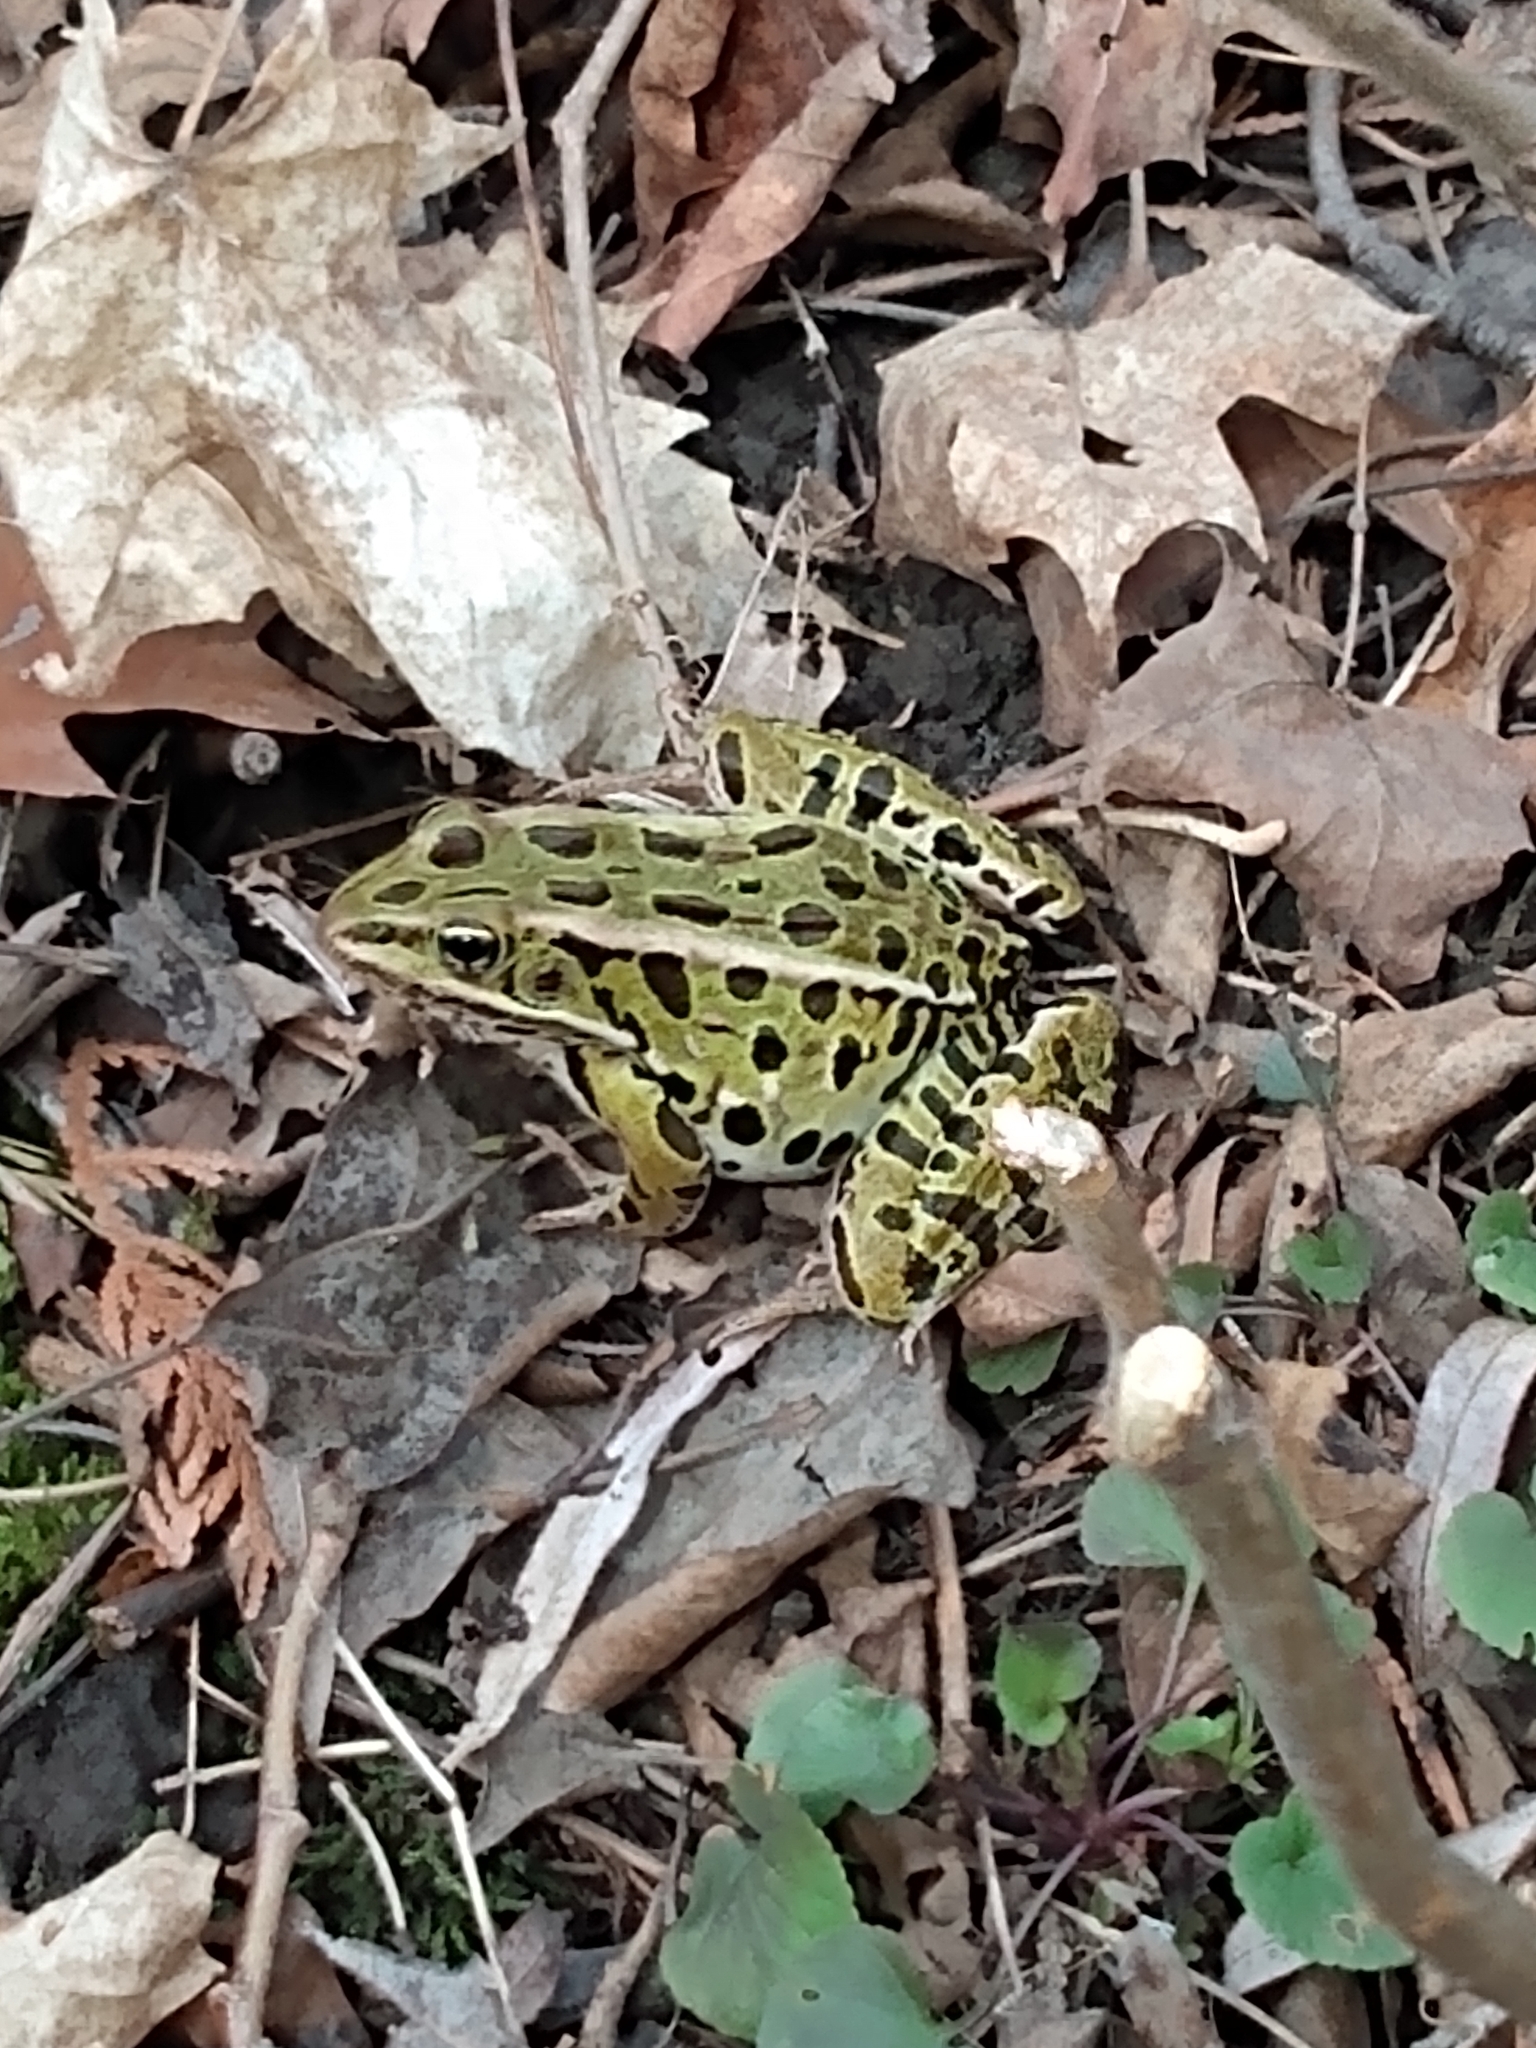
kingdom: Animalia
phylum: Chordata
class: Amphibia
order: Anura
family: Ranidae
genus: Lithobates
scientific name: Lithobates pipiens
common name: Northern leopard frog
